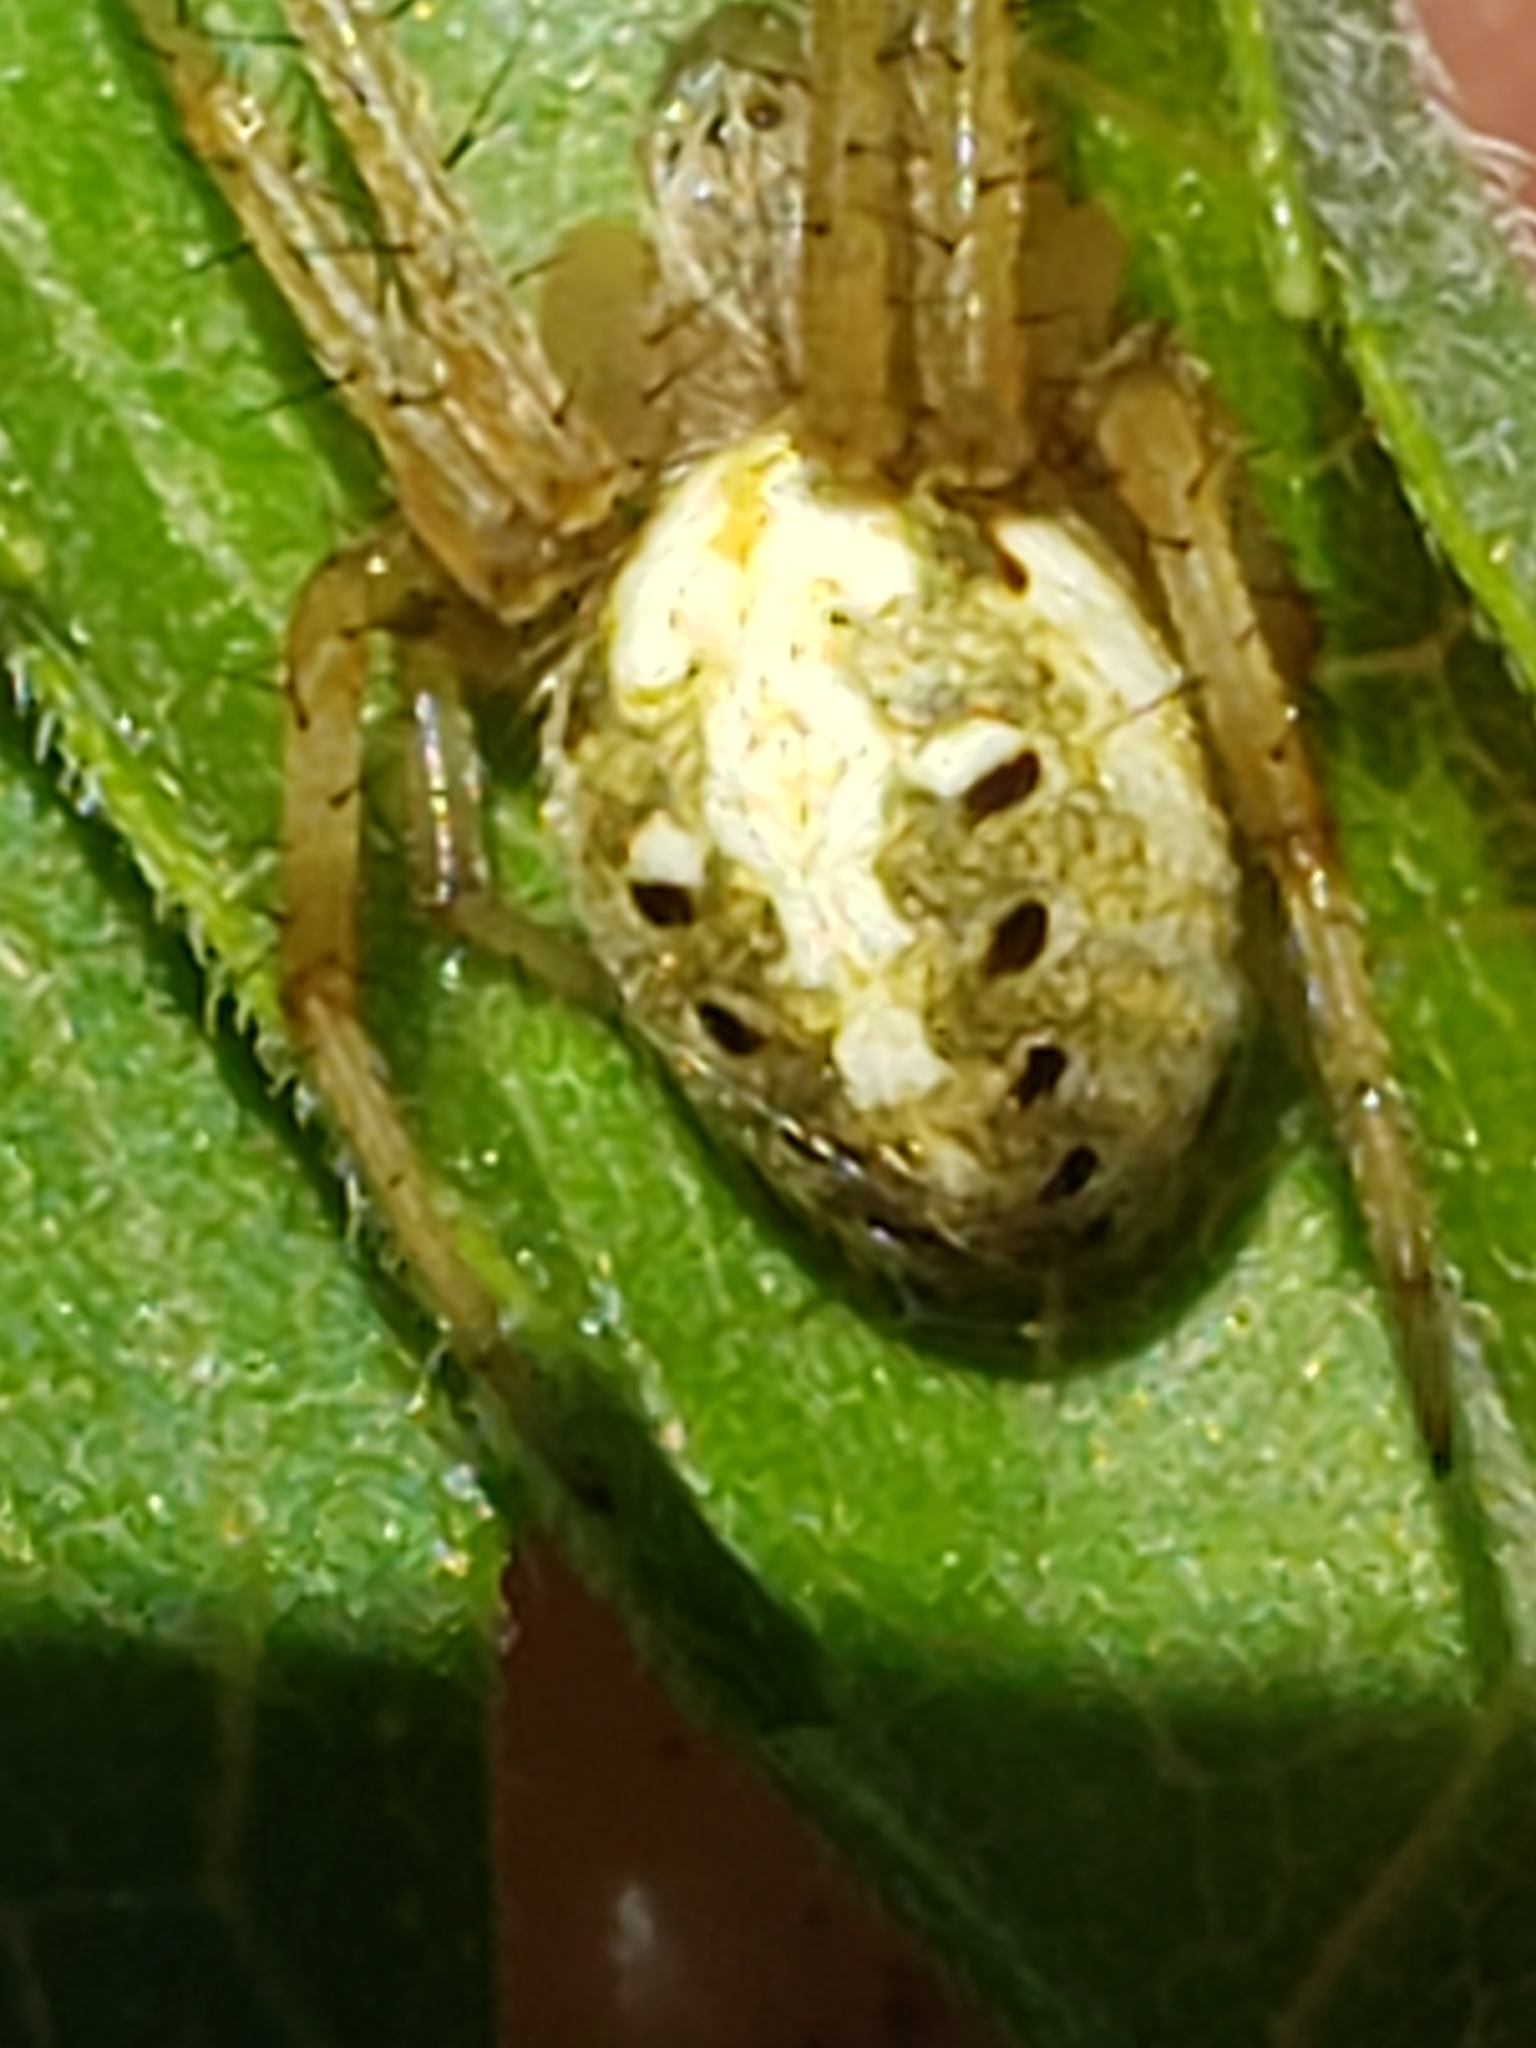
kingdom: Animalia
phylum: Arthropoda
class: Arachnida
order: Araneae
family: Araneidae
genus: Neoscona
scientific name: Neoscona arabesca
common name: Orb weavers
